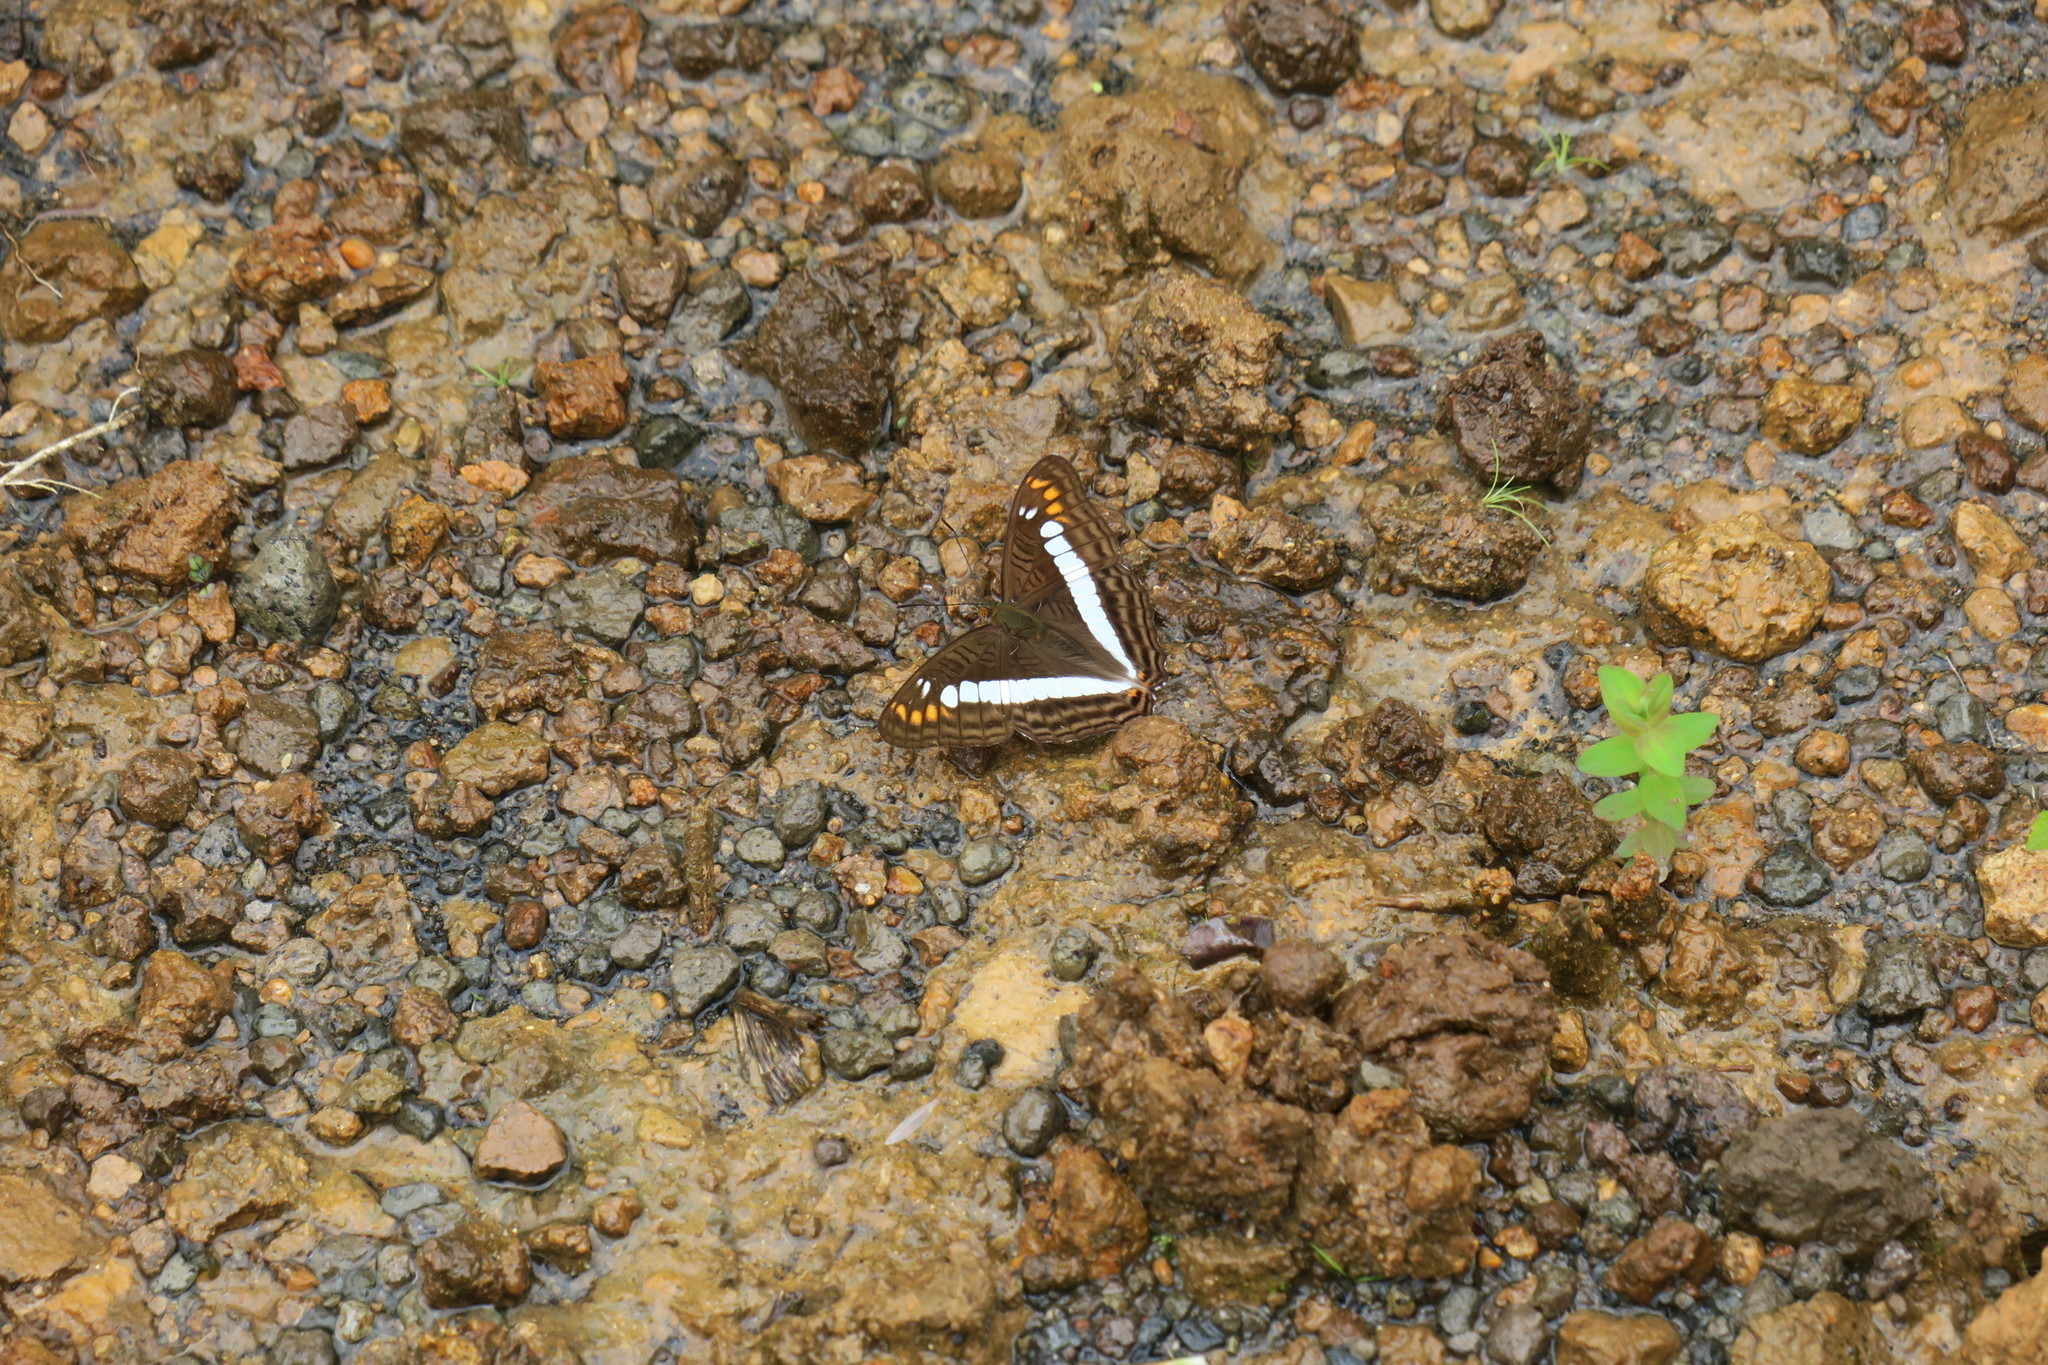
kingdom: Animalia
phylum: Arthropoda
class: Insecta
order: Lepidoptera
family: Nymphalidae
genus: Limenitis
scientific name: Limenitis alala
